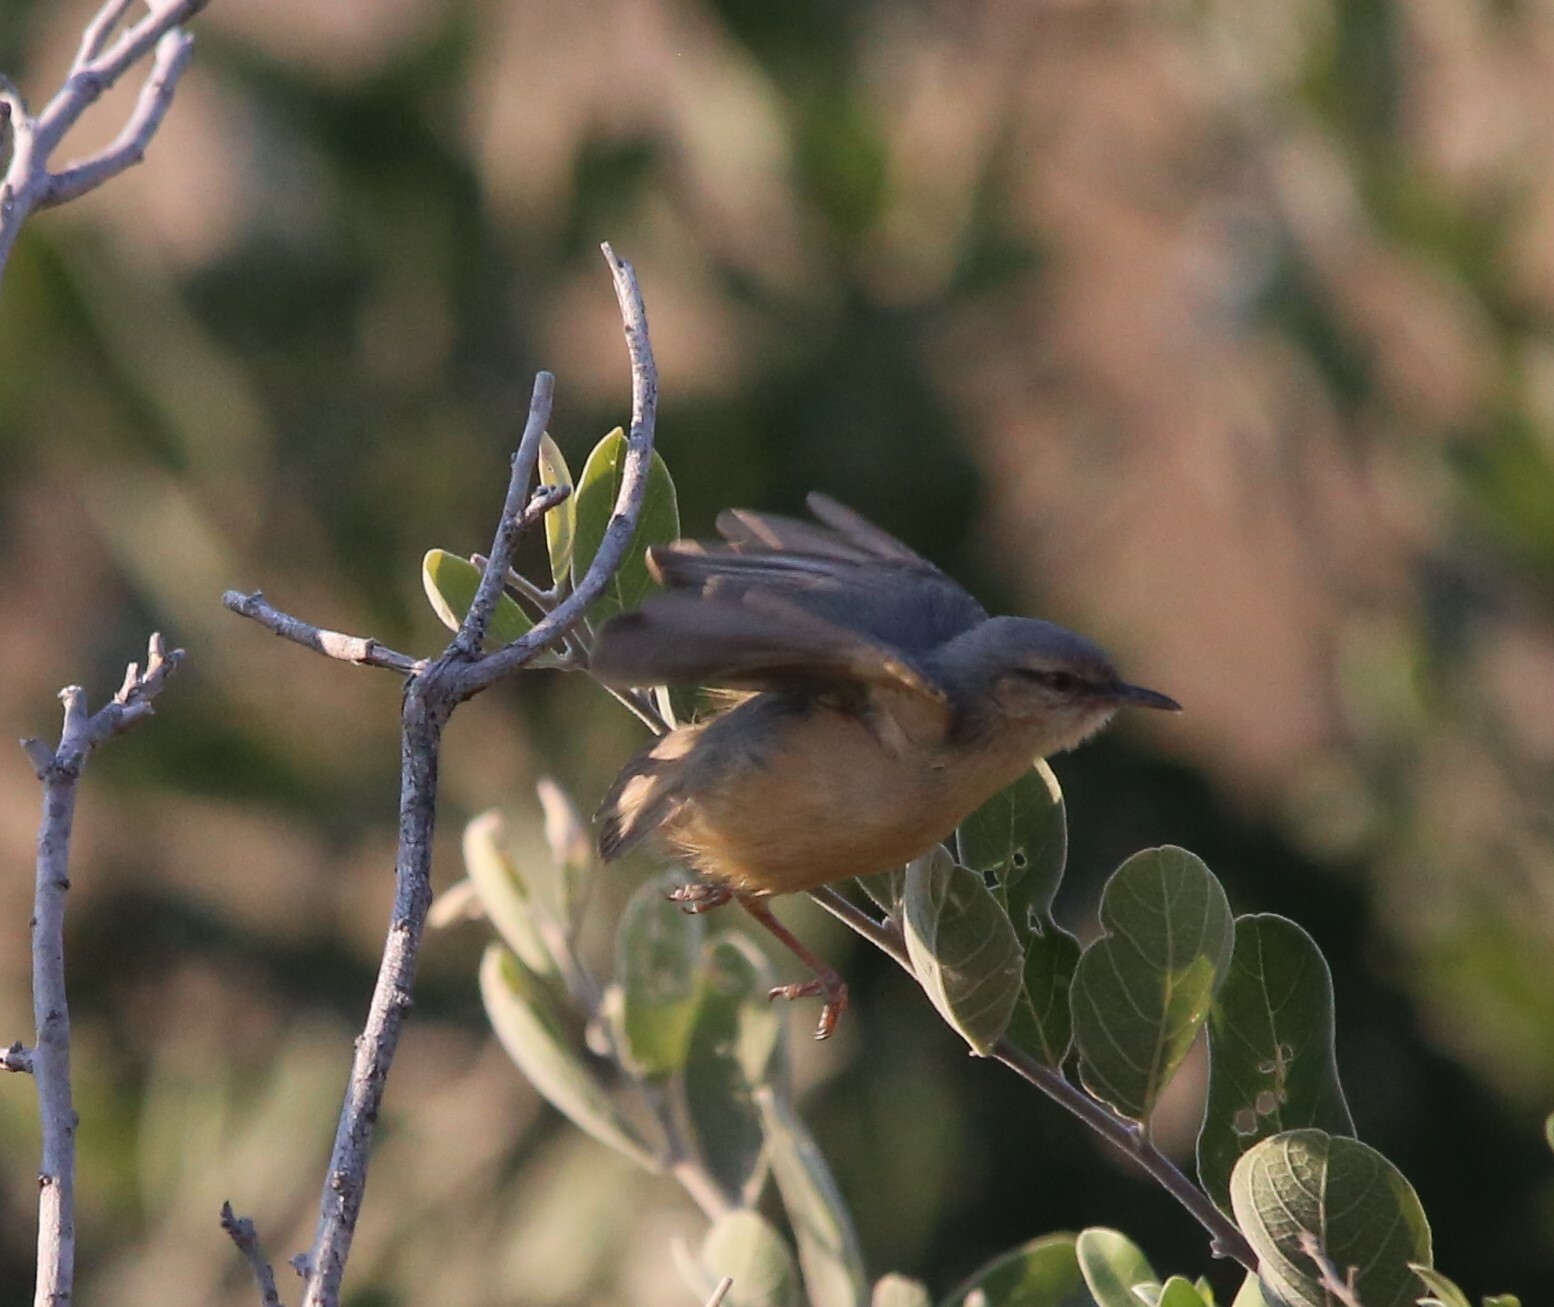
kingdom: Animalia
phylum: Chordata
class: Aves
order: Passeriformes
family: Macrosphenidae
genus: Sylvietta
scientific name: Sylvietta rufescens
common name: Long-billed crombec
